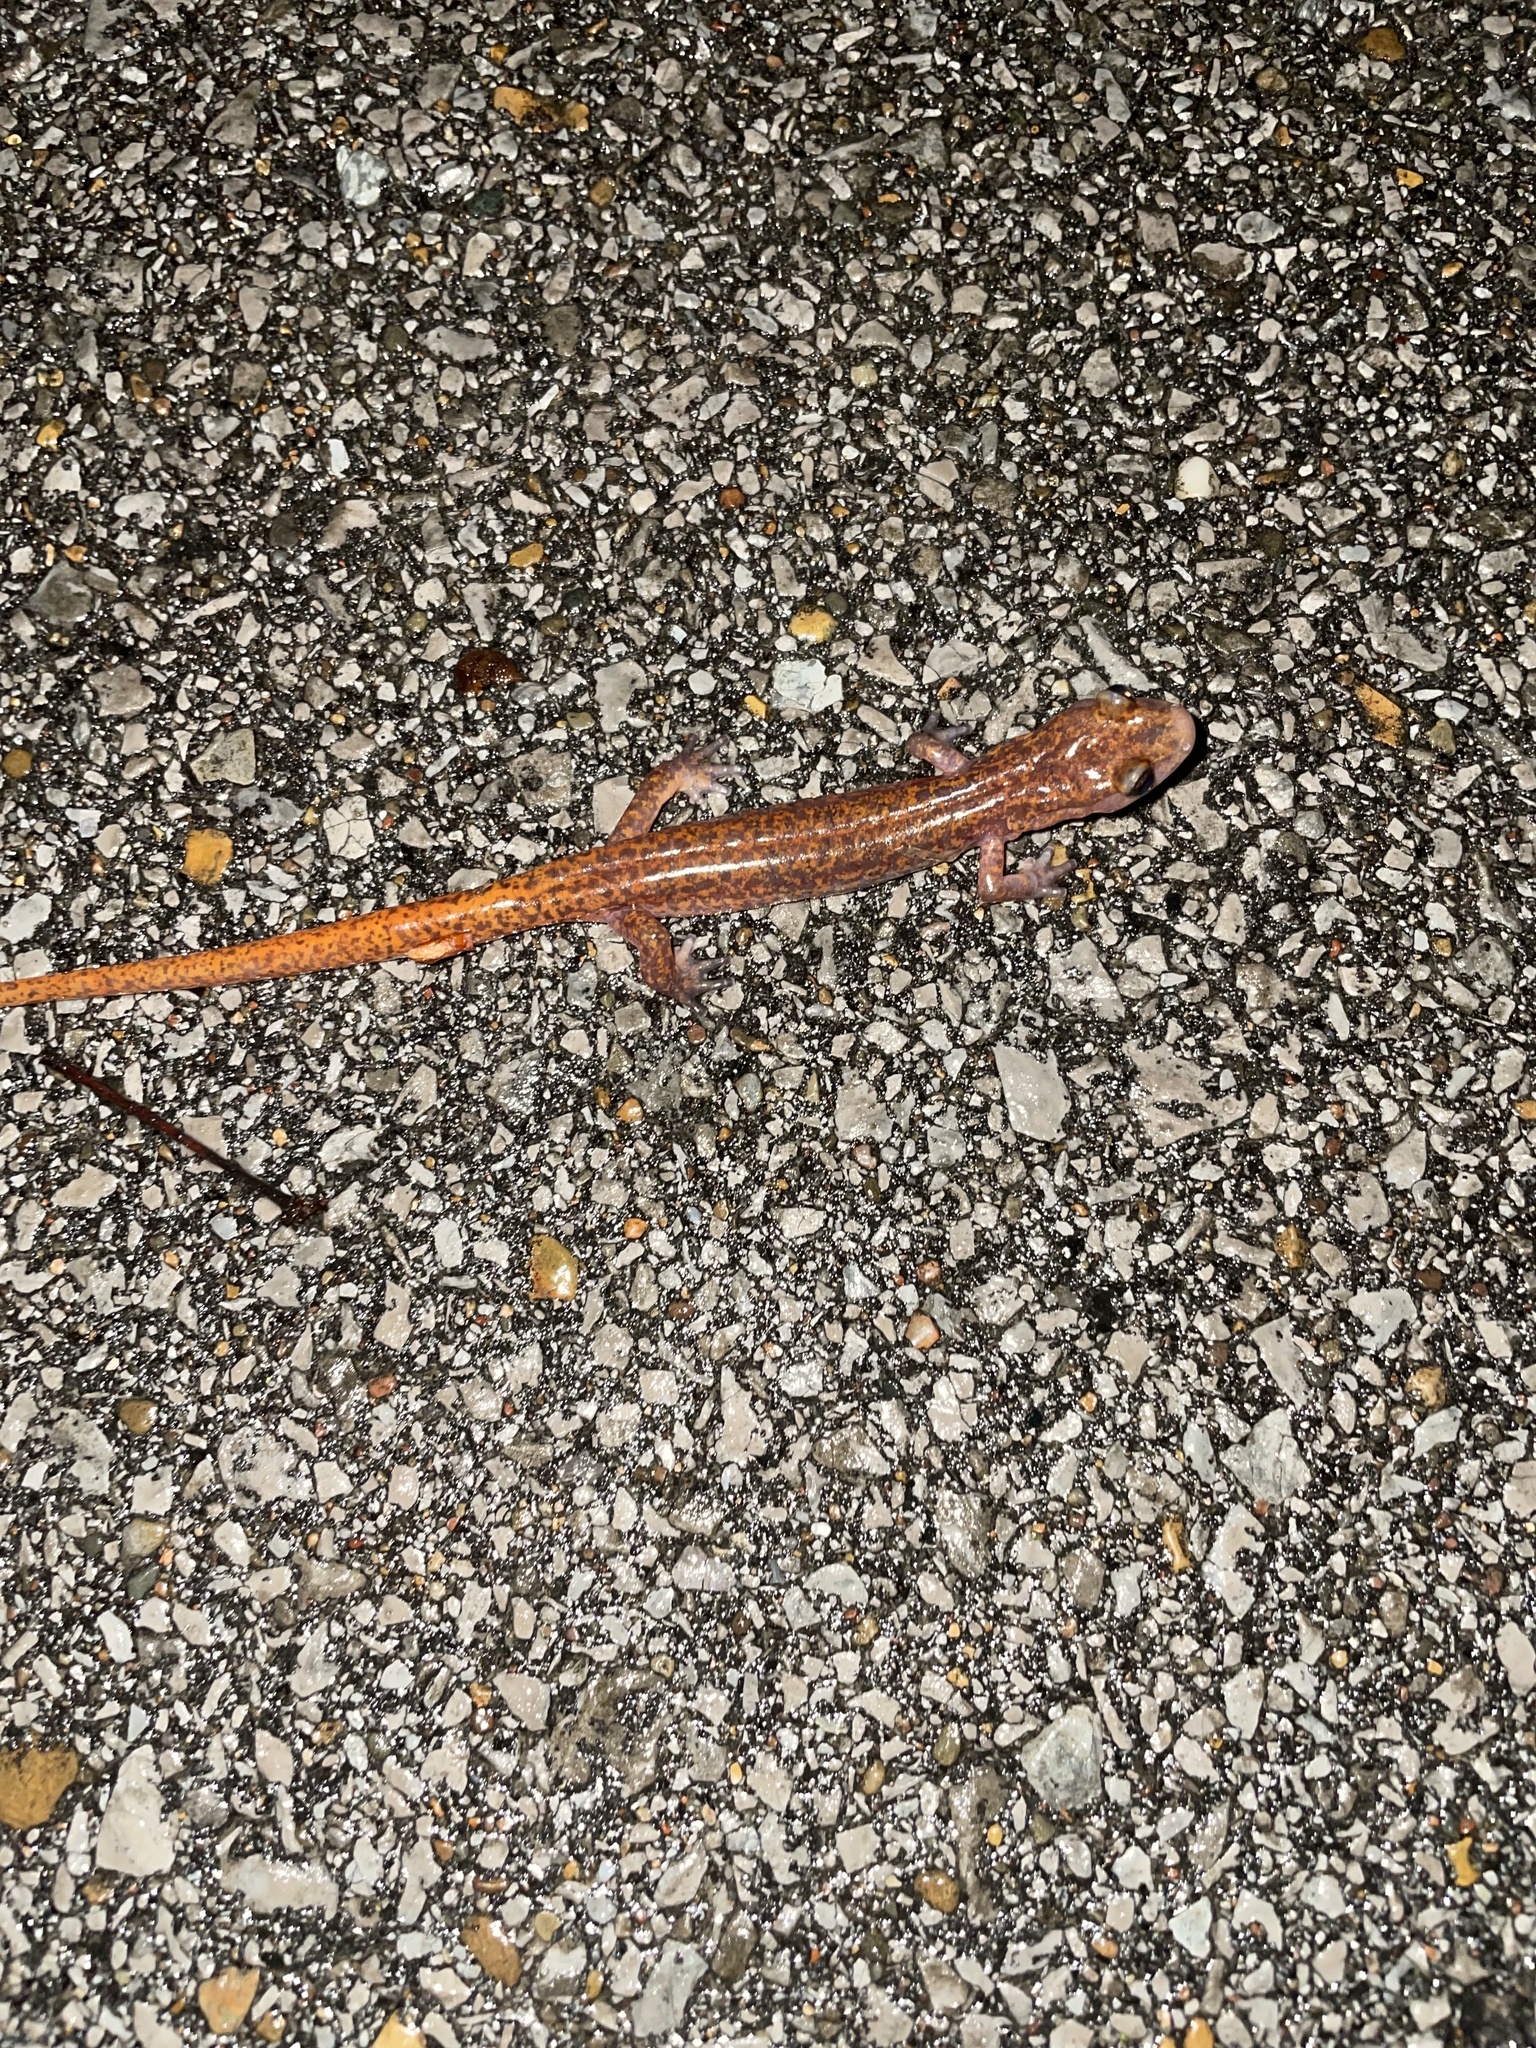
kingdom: Animalia
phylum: Chordata
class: Amphibia
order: Caudata
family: Plethodontidae
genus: Eurycea
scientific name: Eurycea lucifuga
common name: Cave salamander
